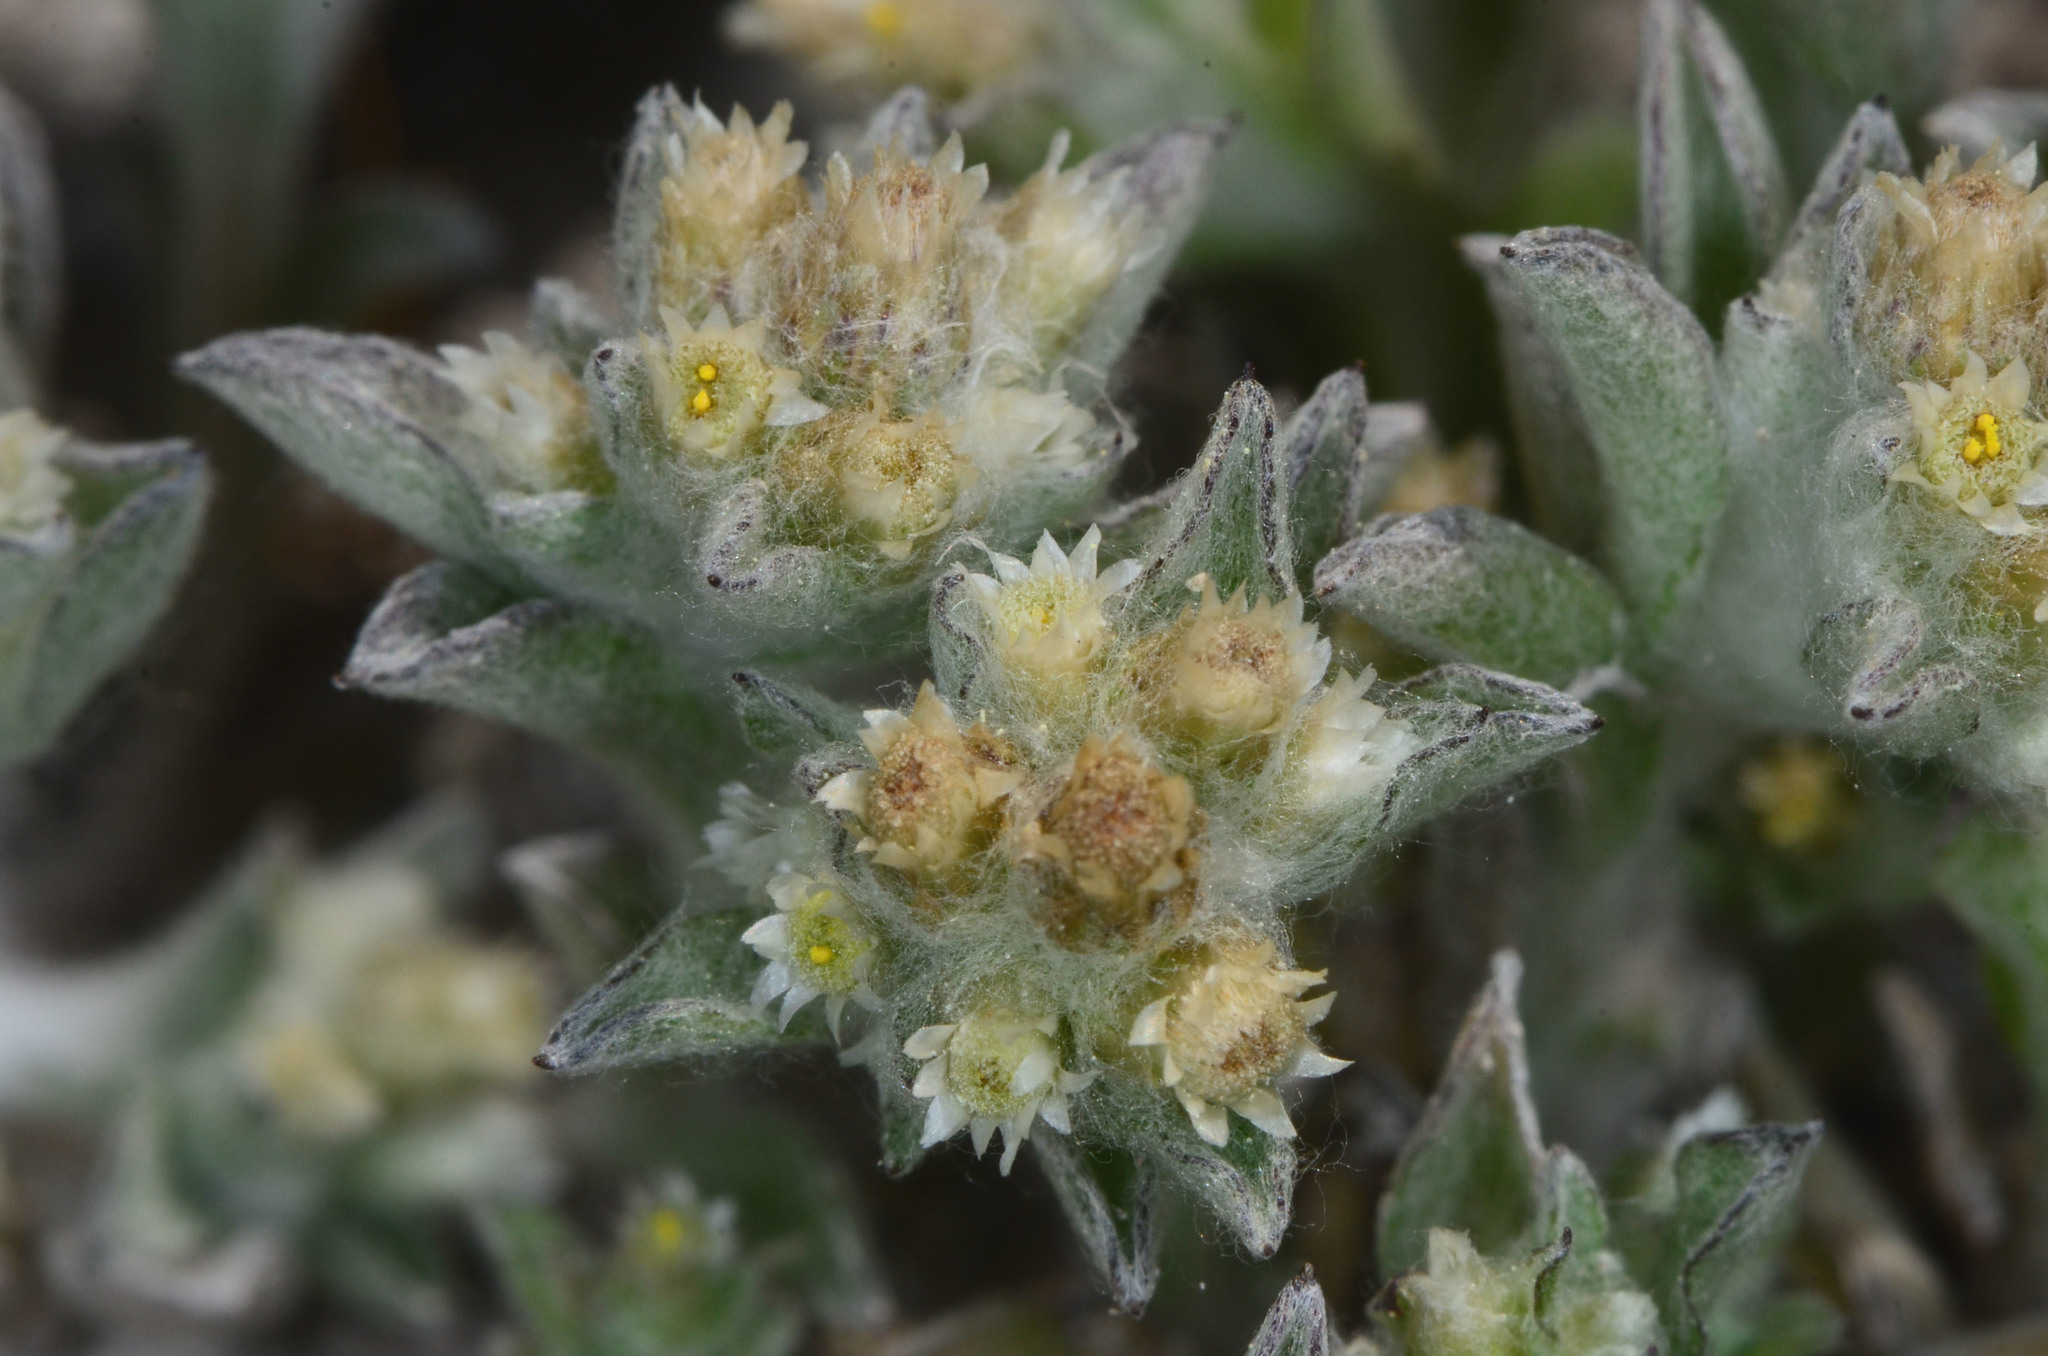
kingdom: Plantae
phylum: Tracheophyta
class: Magnoliopsida
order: Asterales
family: Asteraceae
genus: Gnaphalium
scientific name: Gnaphalium palustre
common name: Western marsh cudweed
